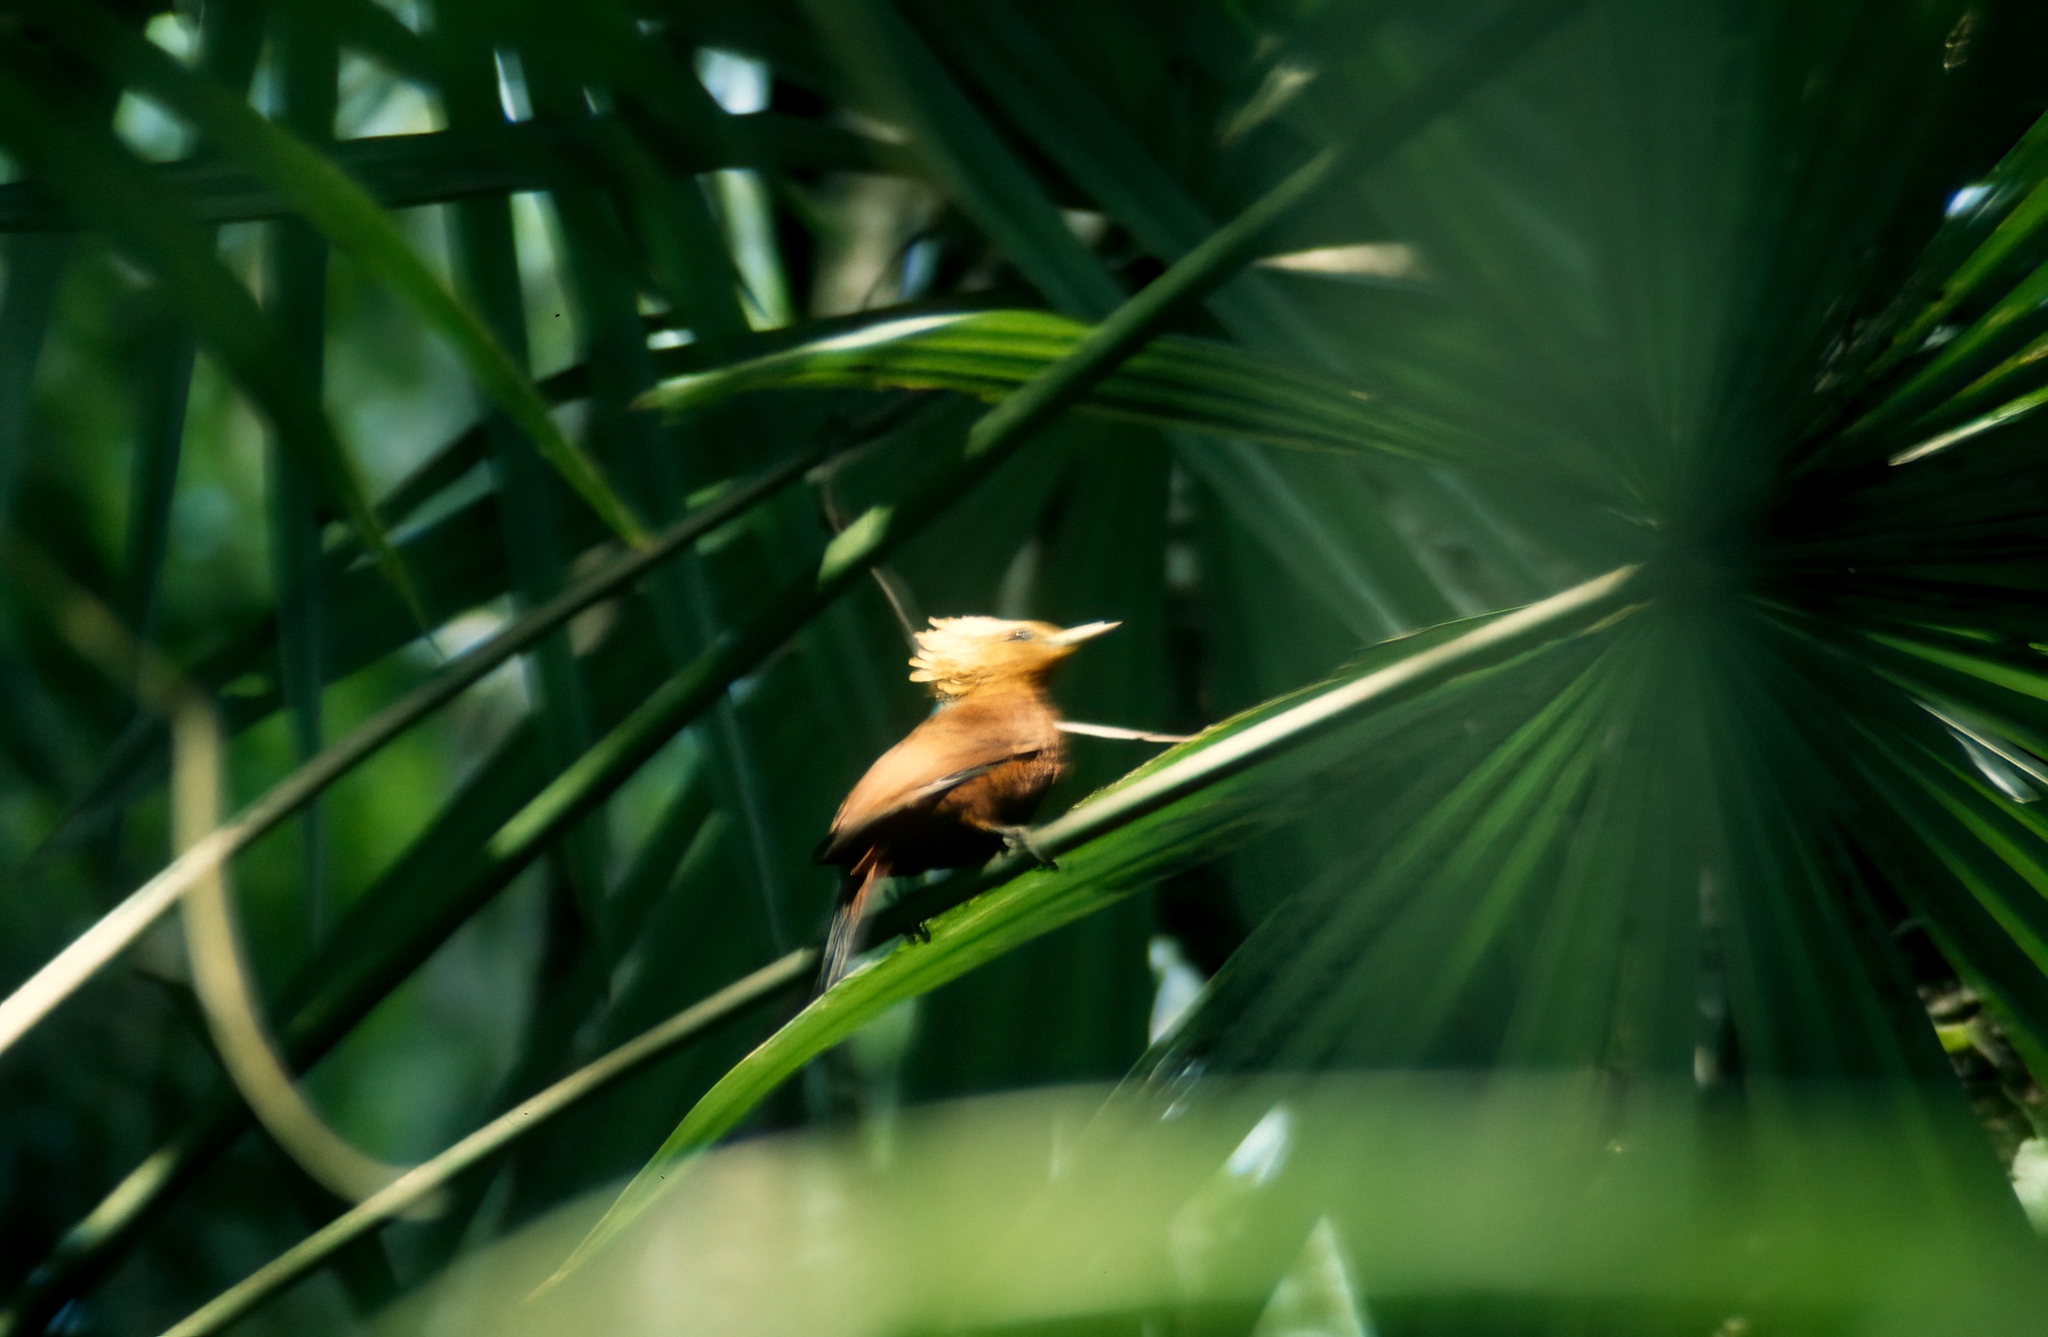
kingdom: Animalia
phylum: Chordata
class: Aves
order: Piciformes
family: Picidae
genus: Celeus
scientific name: Celeus castaneus
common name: Chestnut-colored woodpecker
